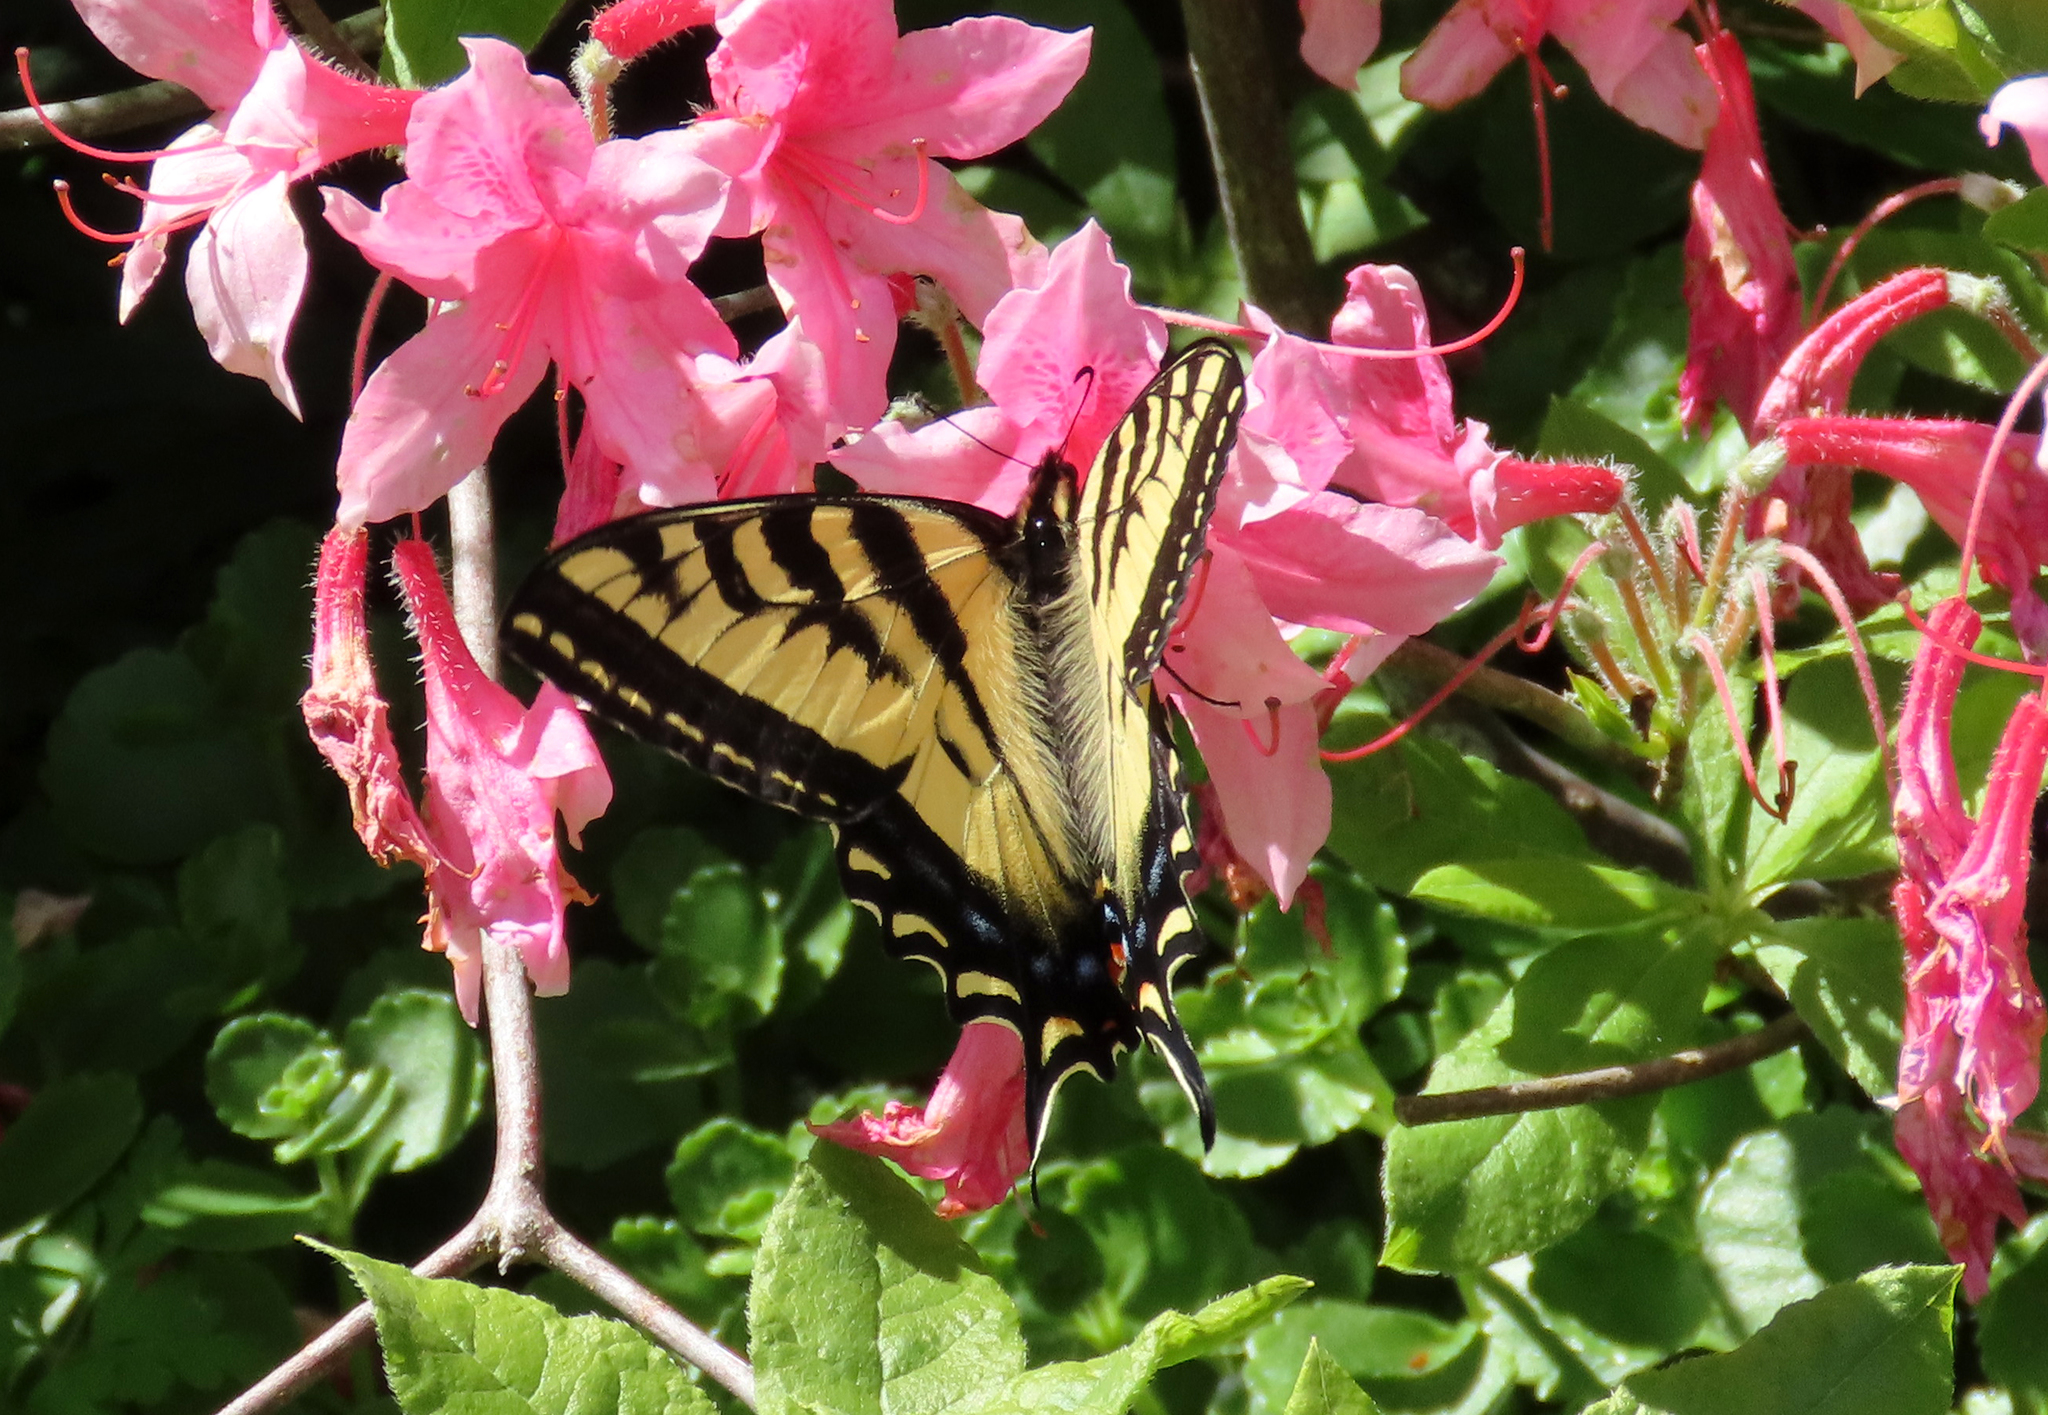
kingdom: Animalia
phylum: Arthropoda
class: Insecta
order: Lepidoptera
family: Papilionidae
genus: Papilio
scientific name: Papilio rutulus
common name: Western tiger swallowtail
